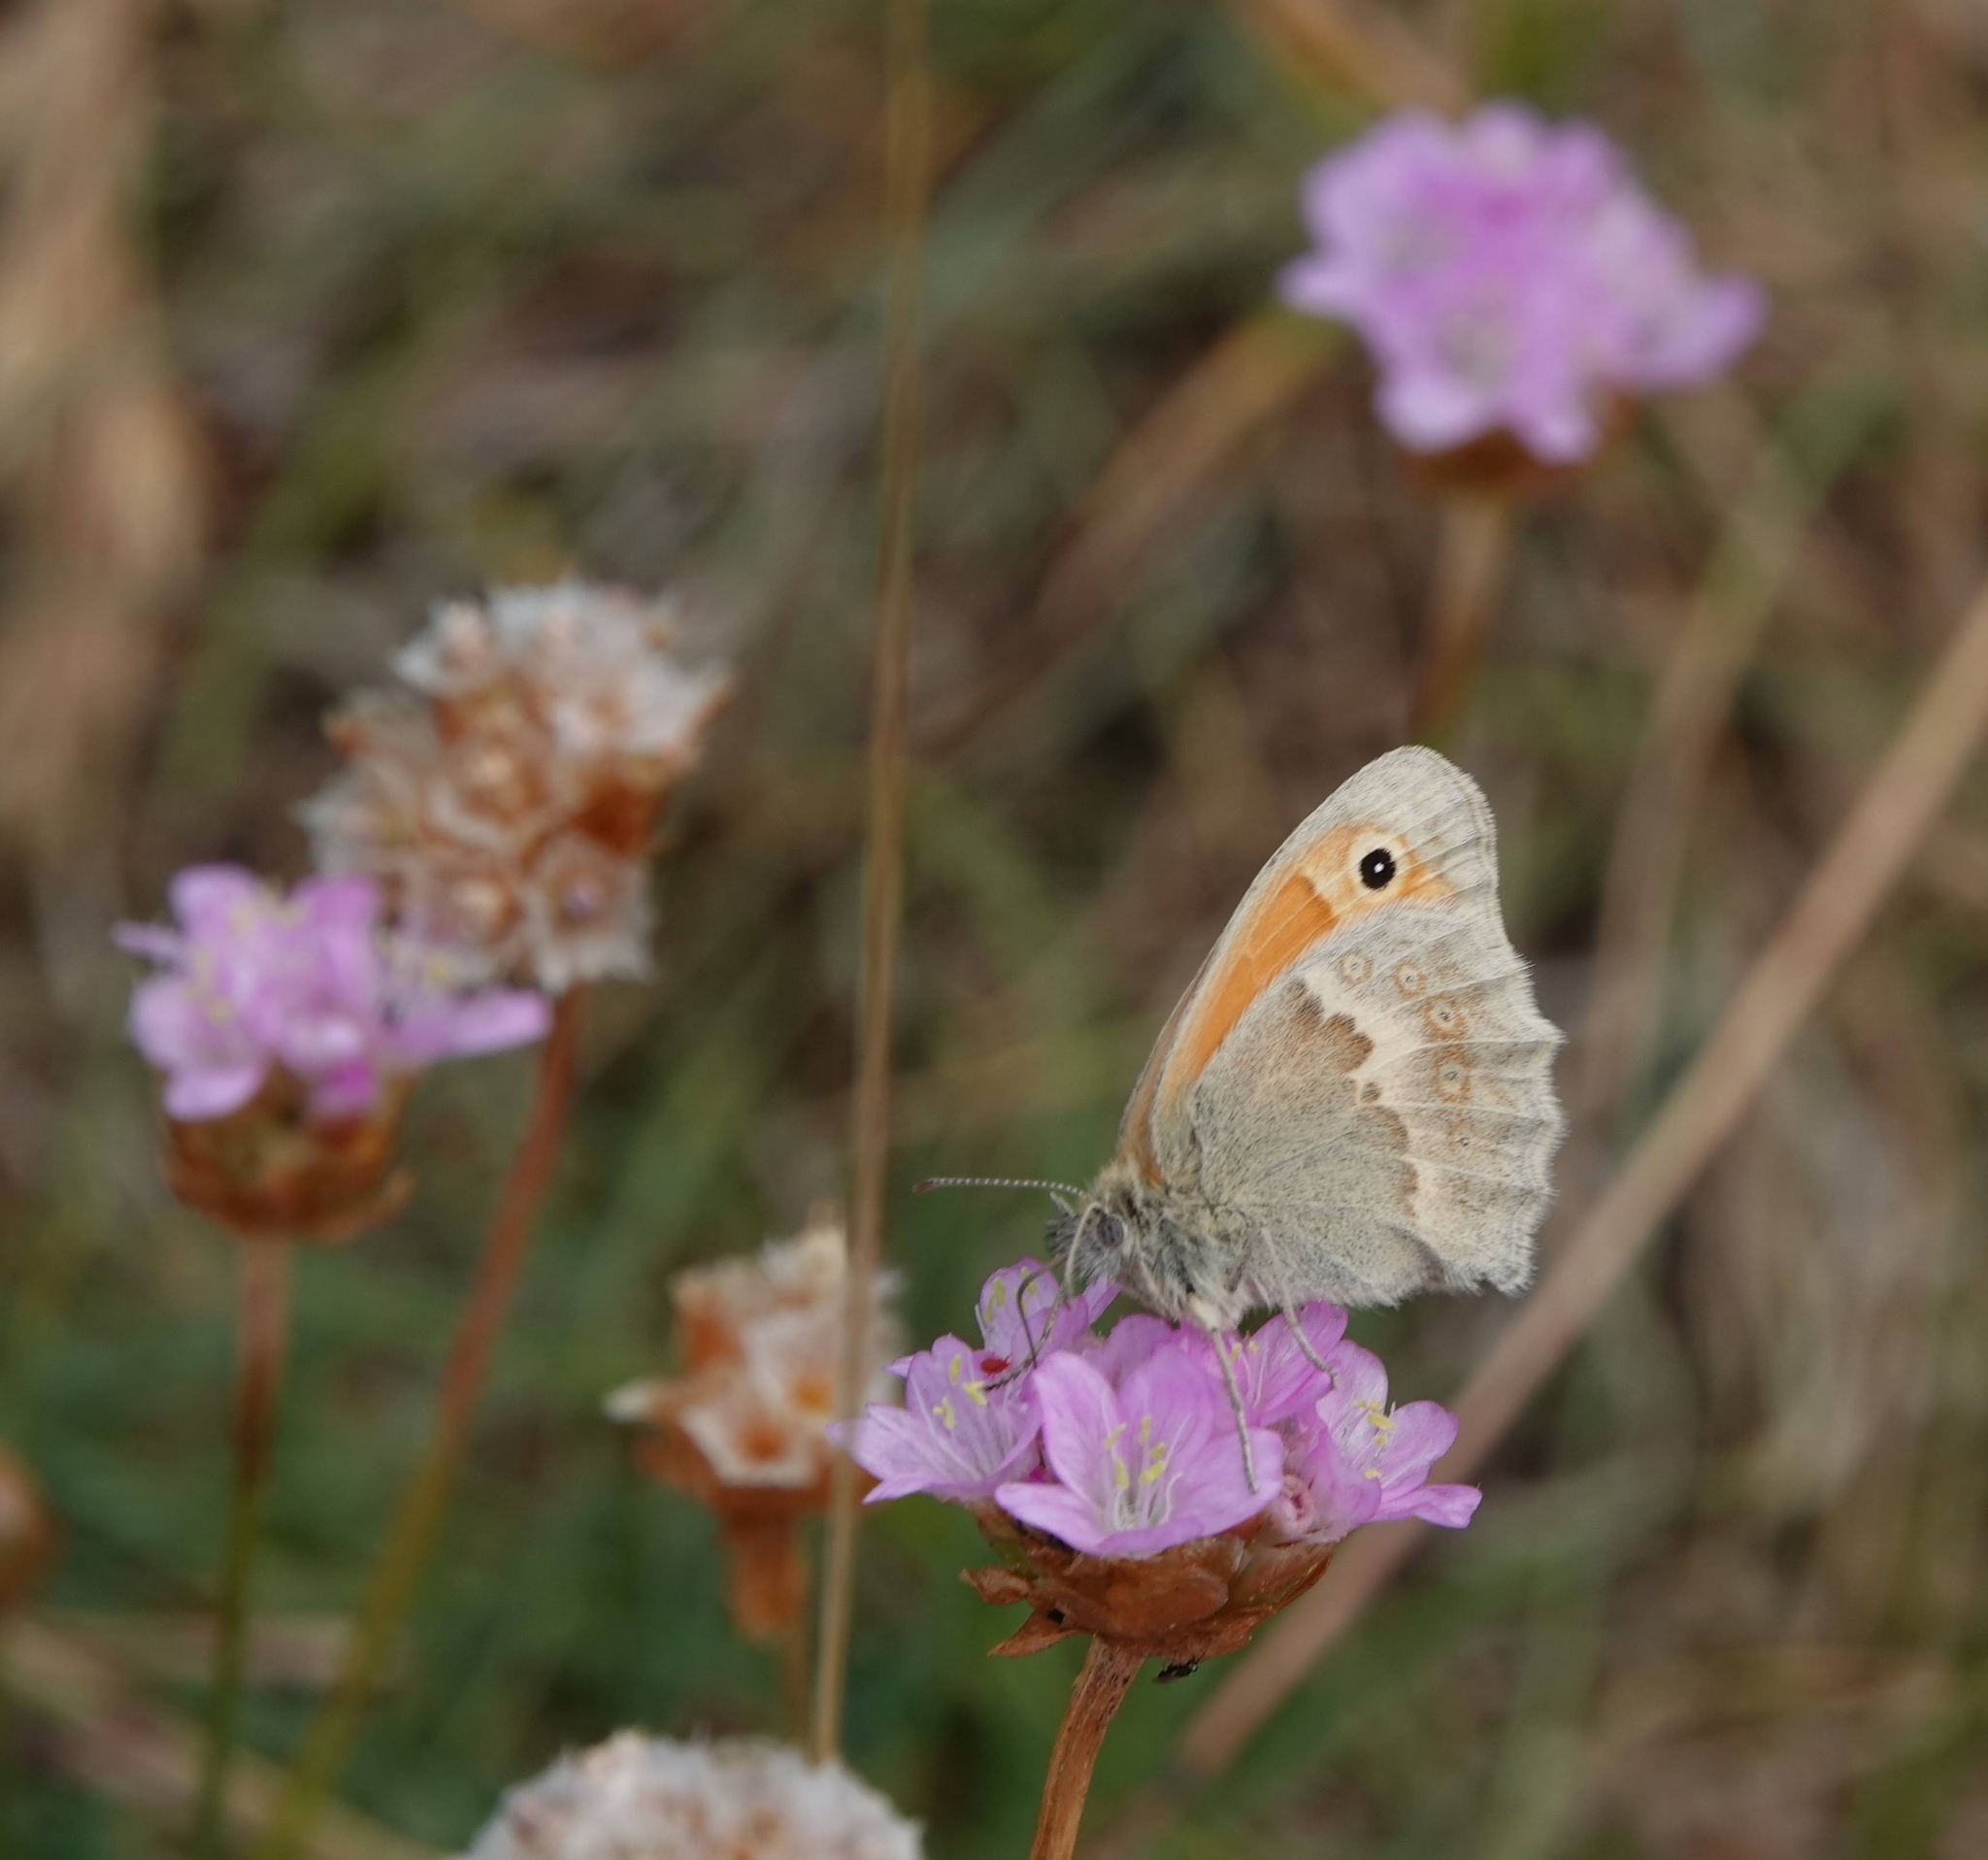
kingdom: Animalia
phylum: Arthropoda
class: Insecta
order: Lepidoptera
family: Nymphalidae
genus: Maniola
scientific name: Maniola jurtina
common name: Meadow brown
